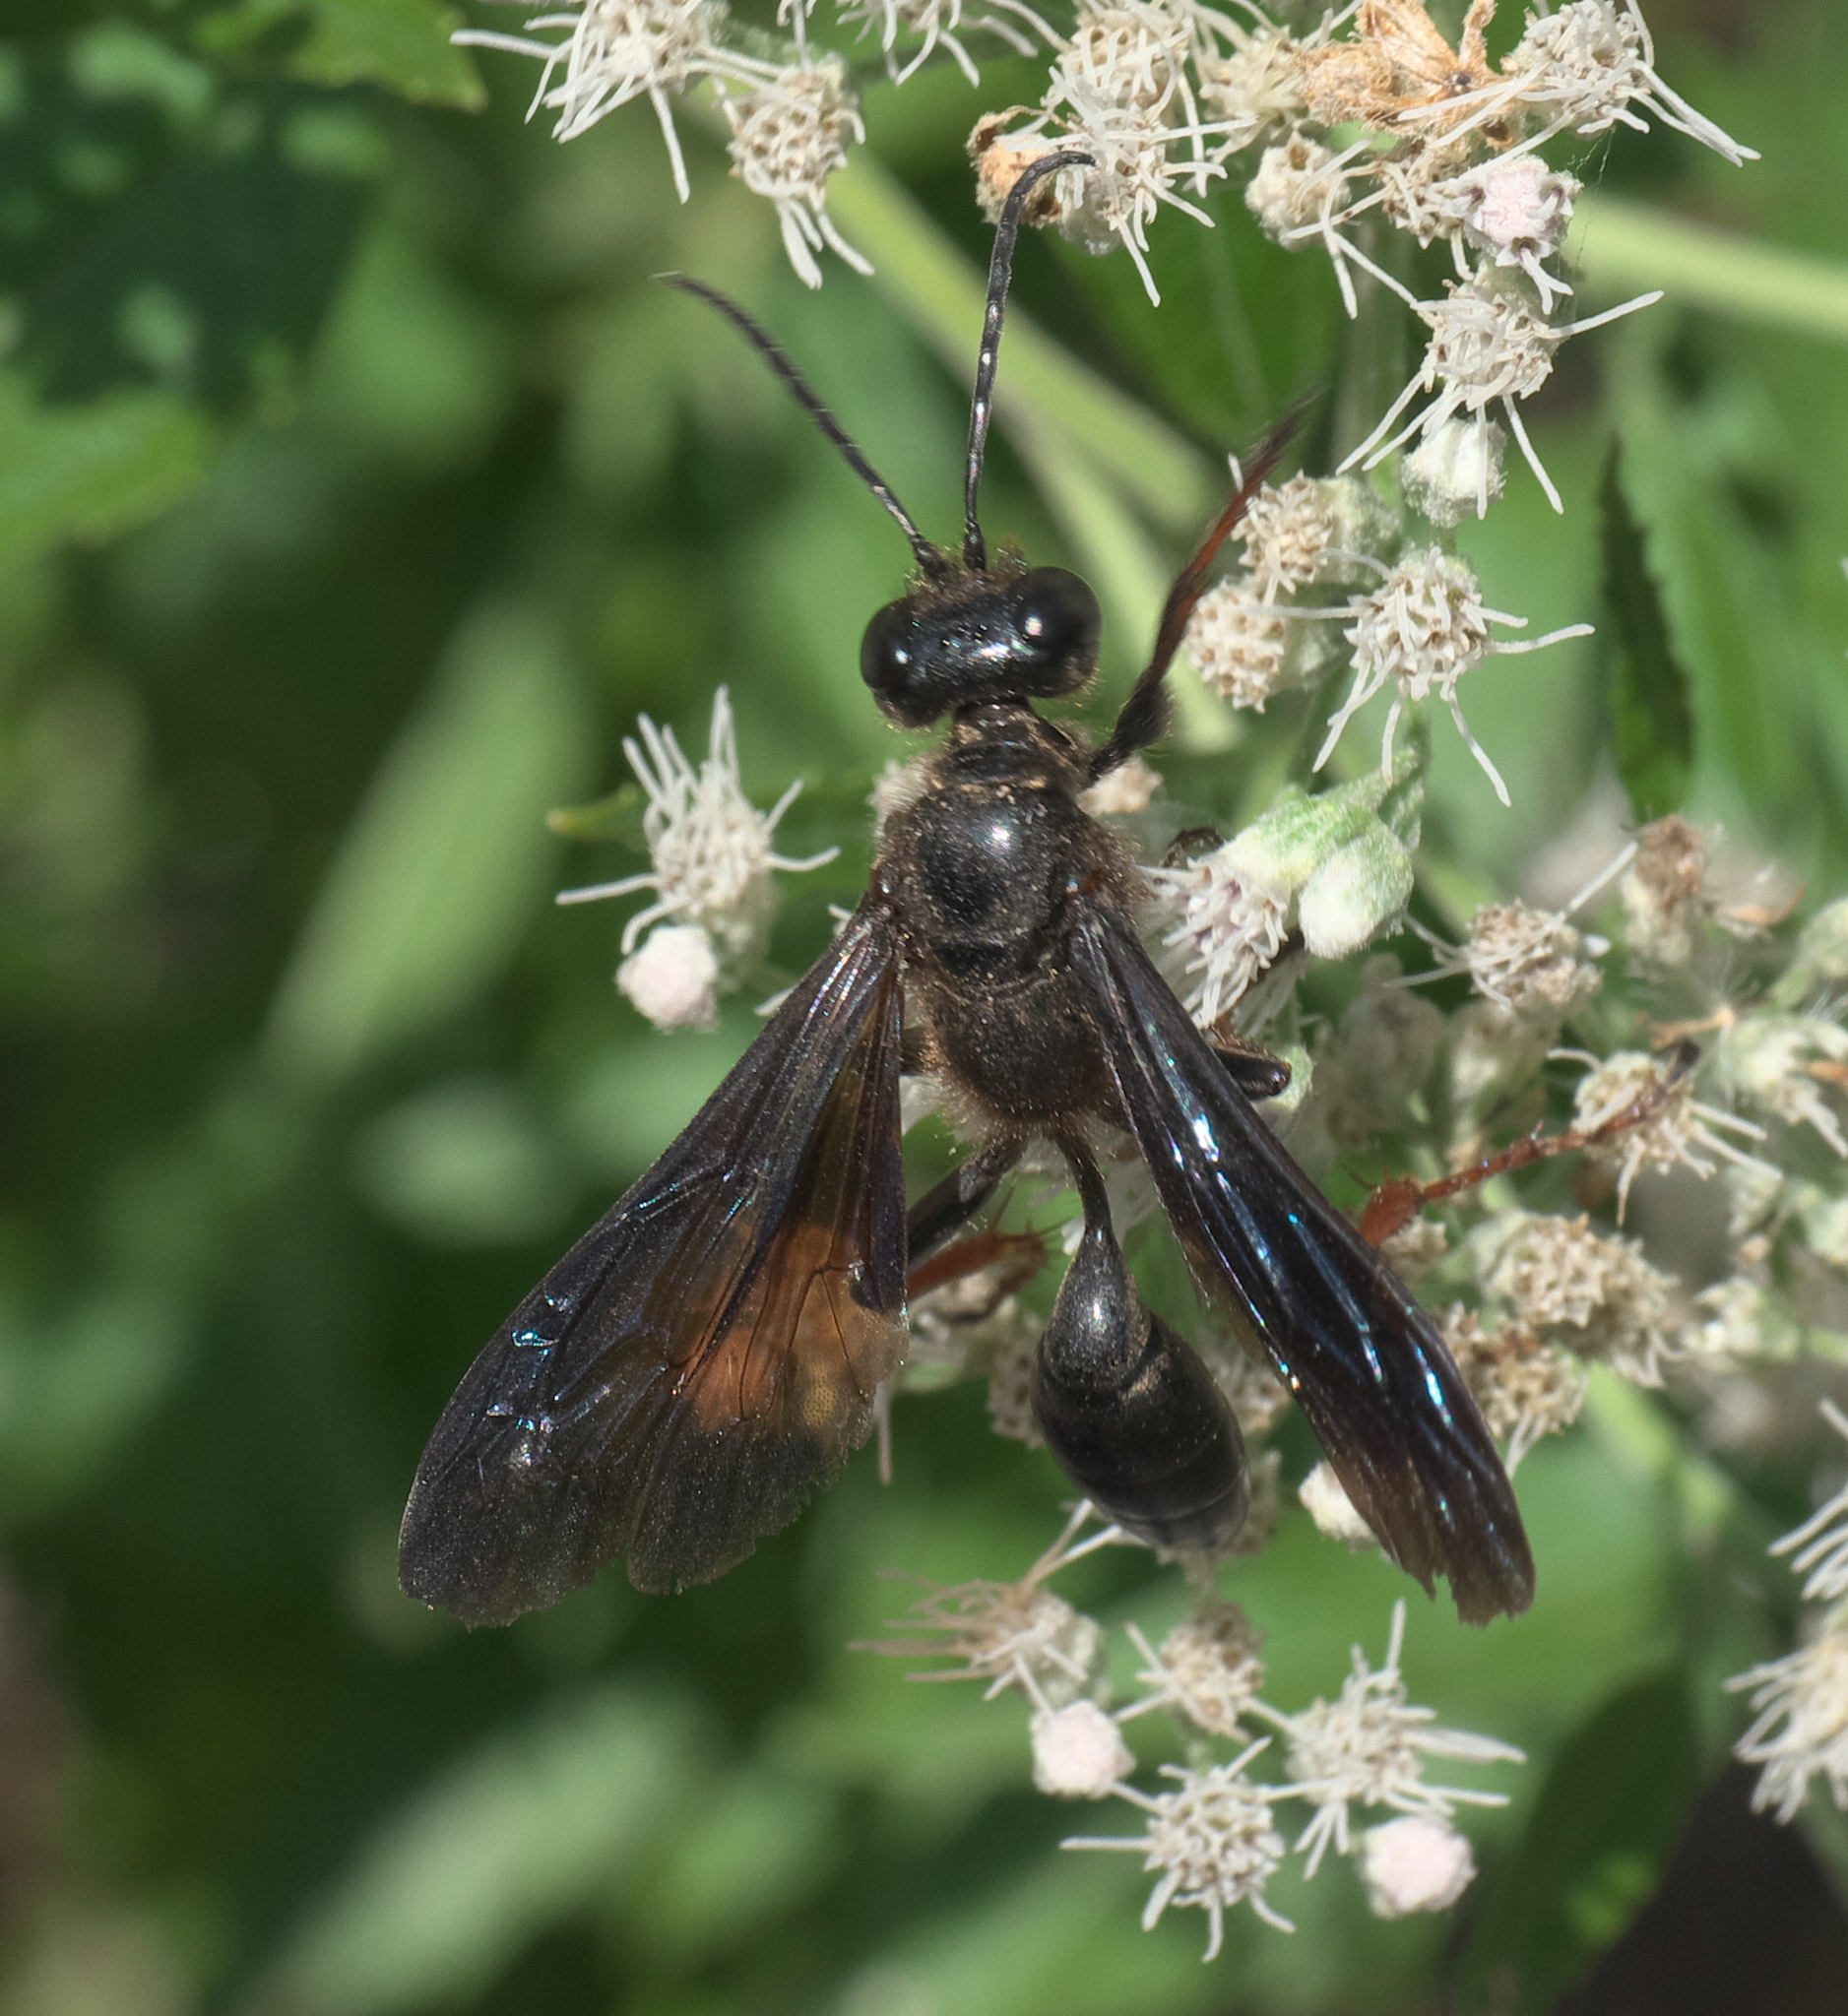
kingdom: Animalia
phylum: Arthropoda
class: Insecta
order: Hymenoptera
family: Sphecidae
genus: Isodontia
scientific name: Isodontia auripes
